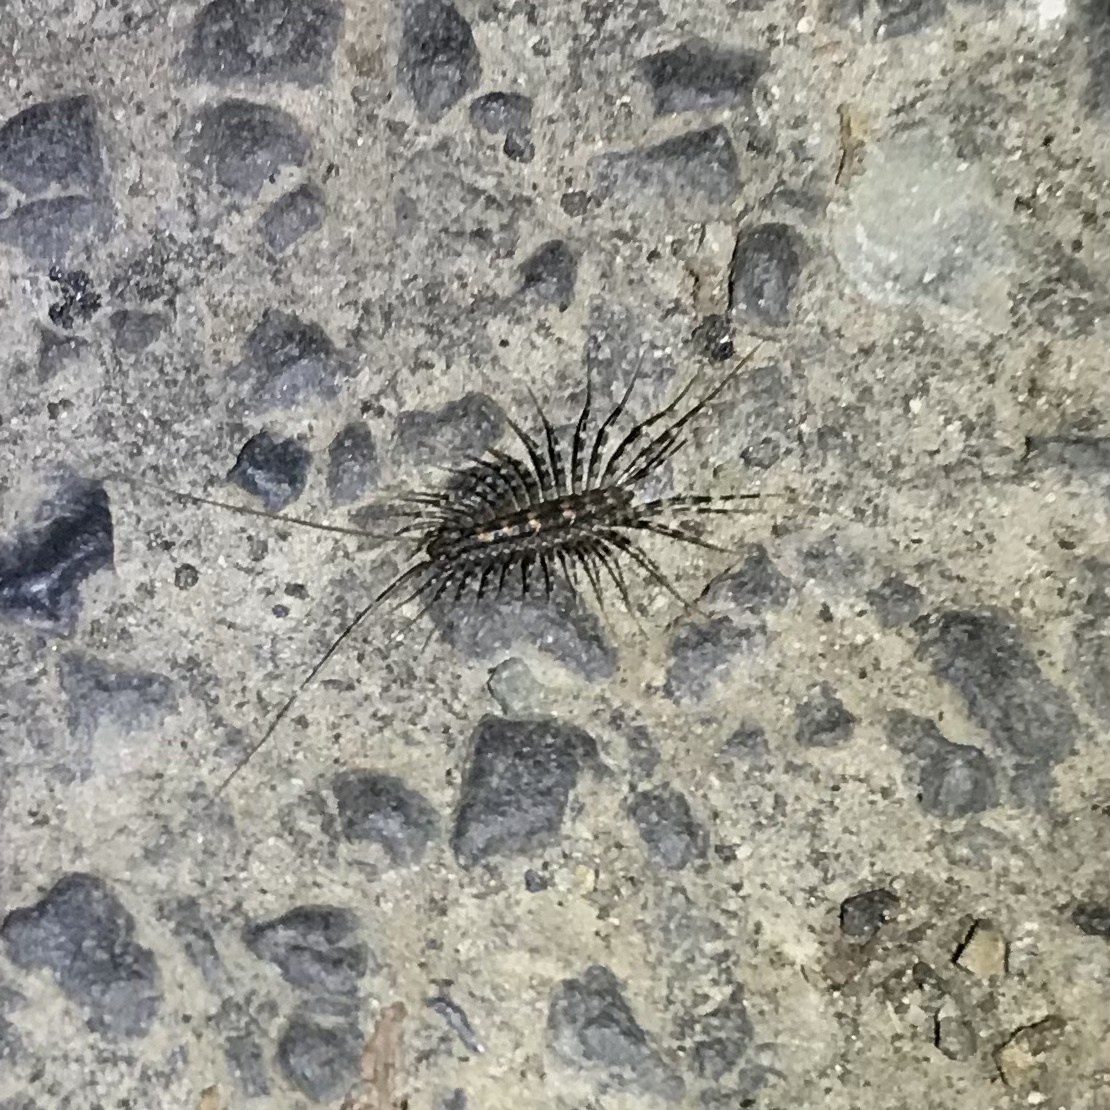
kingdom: Animalia
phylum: Arthropoda
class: Chilopoda
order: Scutigeromorpha
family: Scutigeridae
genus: Allothereua
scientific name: Allothereua maculata
